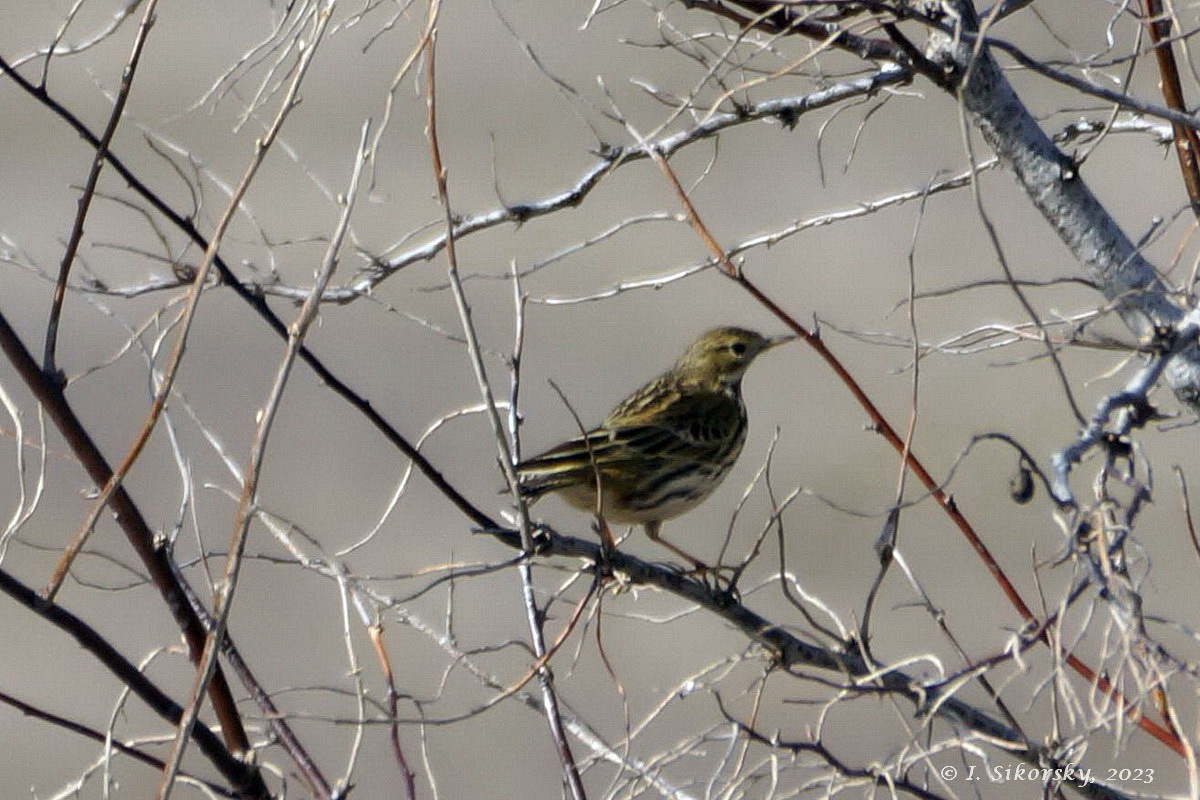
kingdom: Animalia
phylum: Chordata
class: Aves
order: Passeriformes
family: Motacillidae
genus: Anthus
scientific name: Anthus pratensis
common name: Meadow pipit
